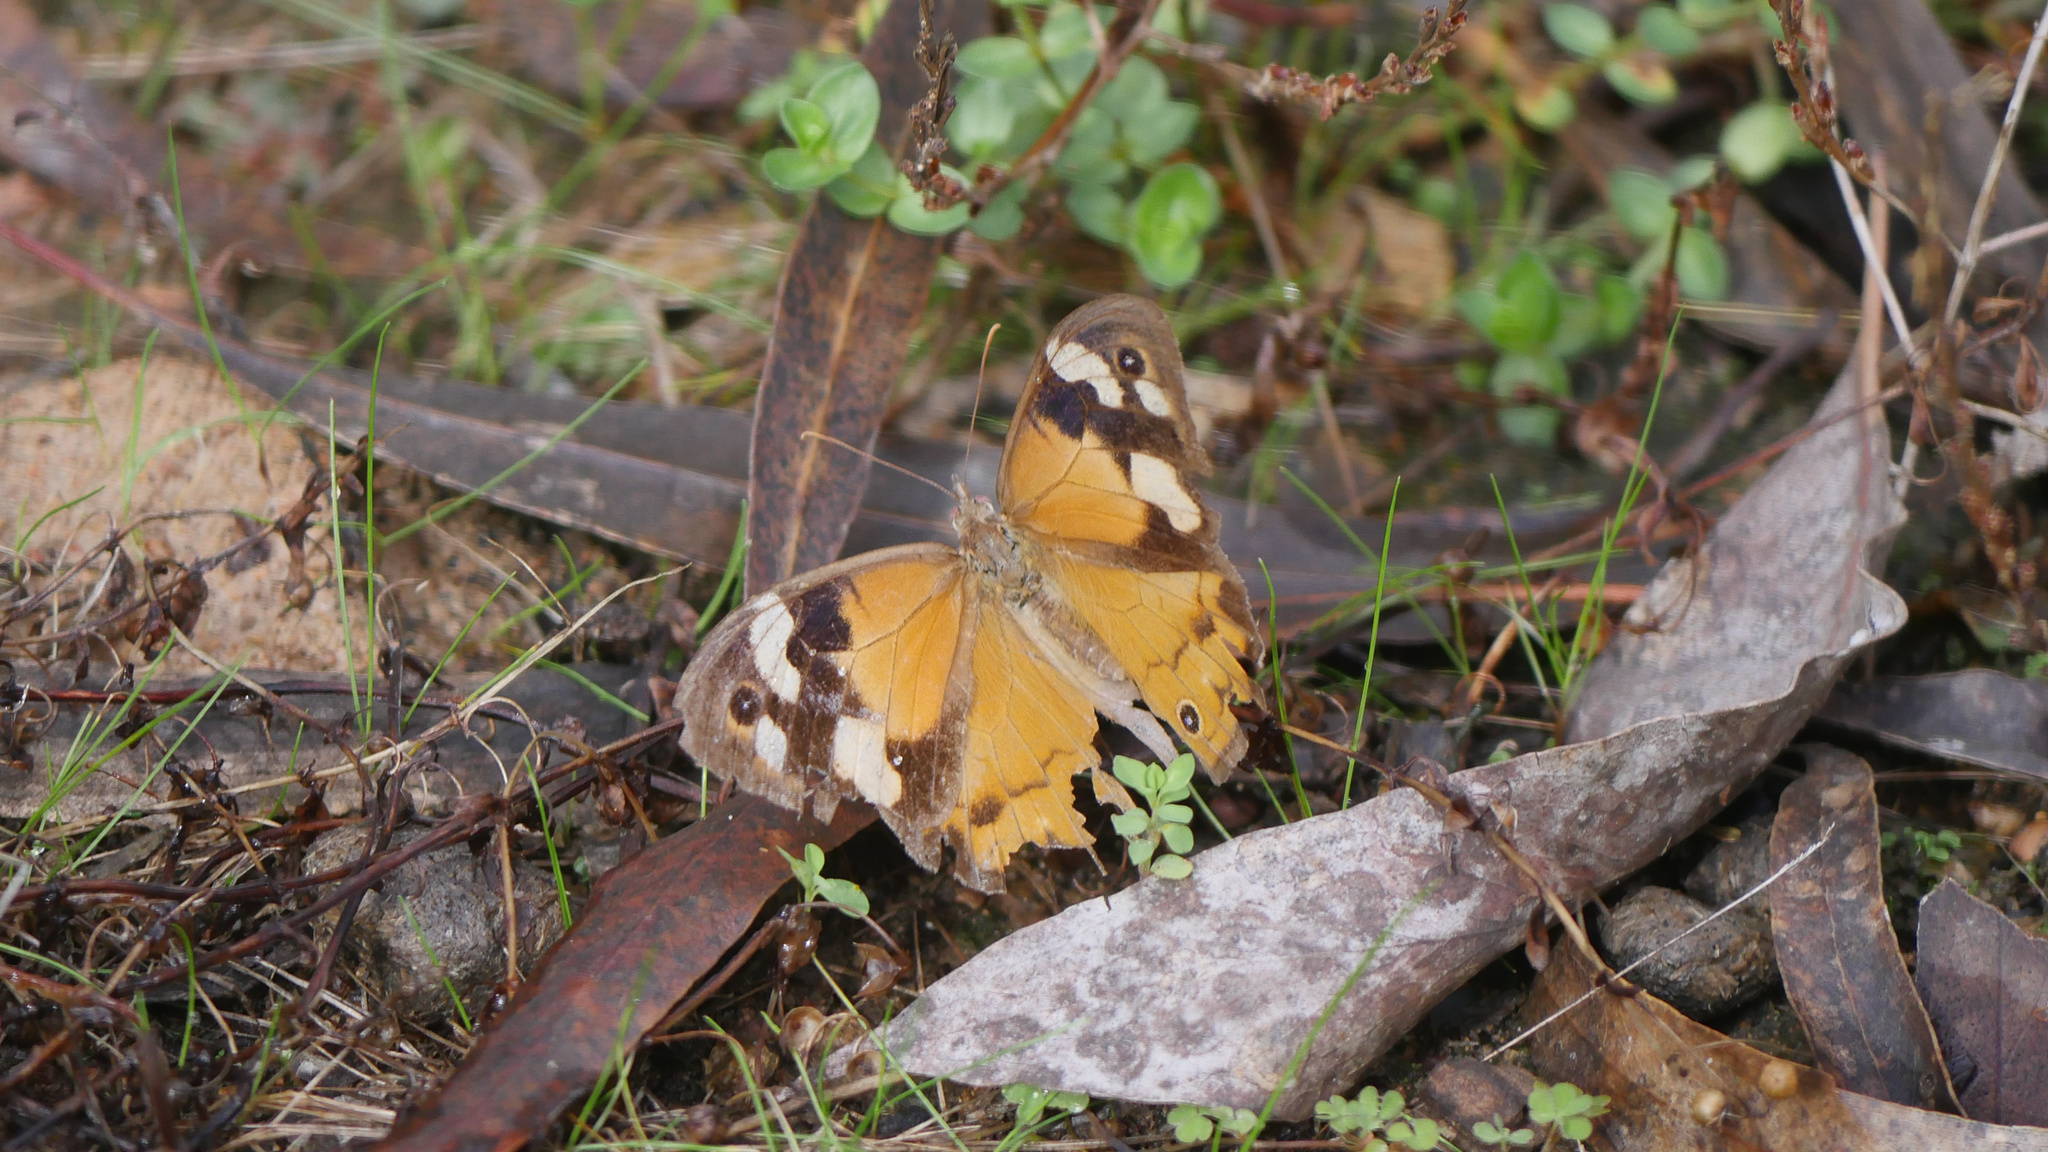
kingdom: Animalia
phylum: Arthropoda
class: Insecta
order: Lepidoptera
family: Nymphalidae
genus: Heteronympha
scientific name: Heteronympha merope
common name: Common brown
